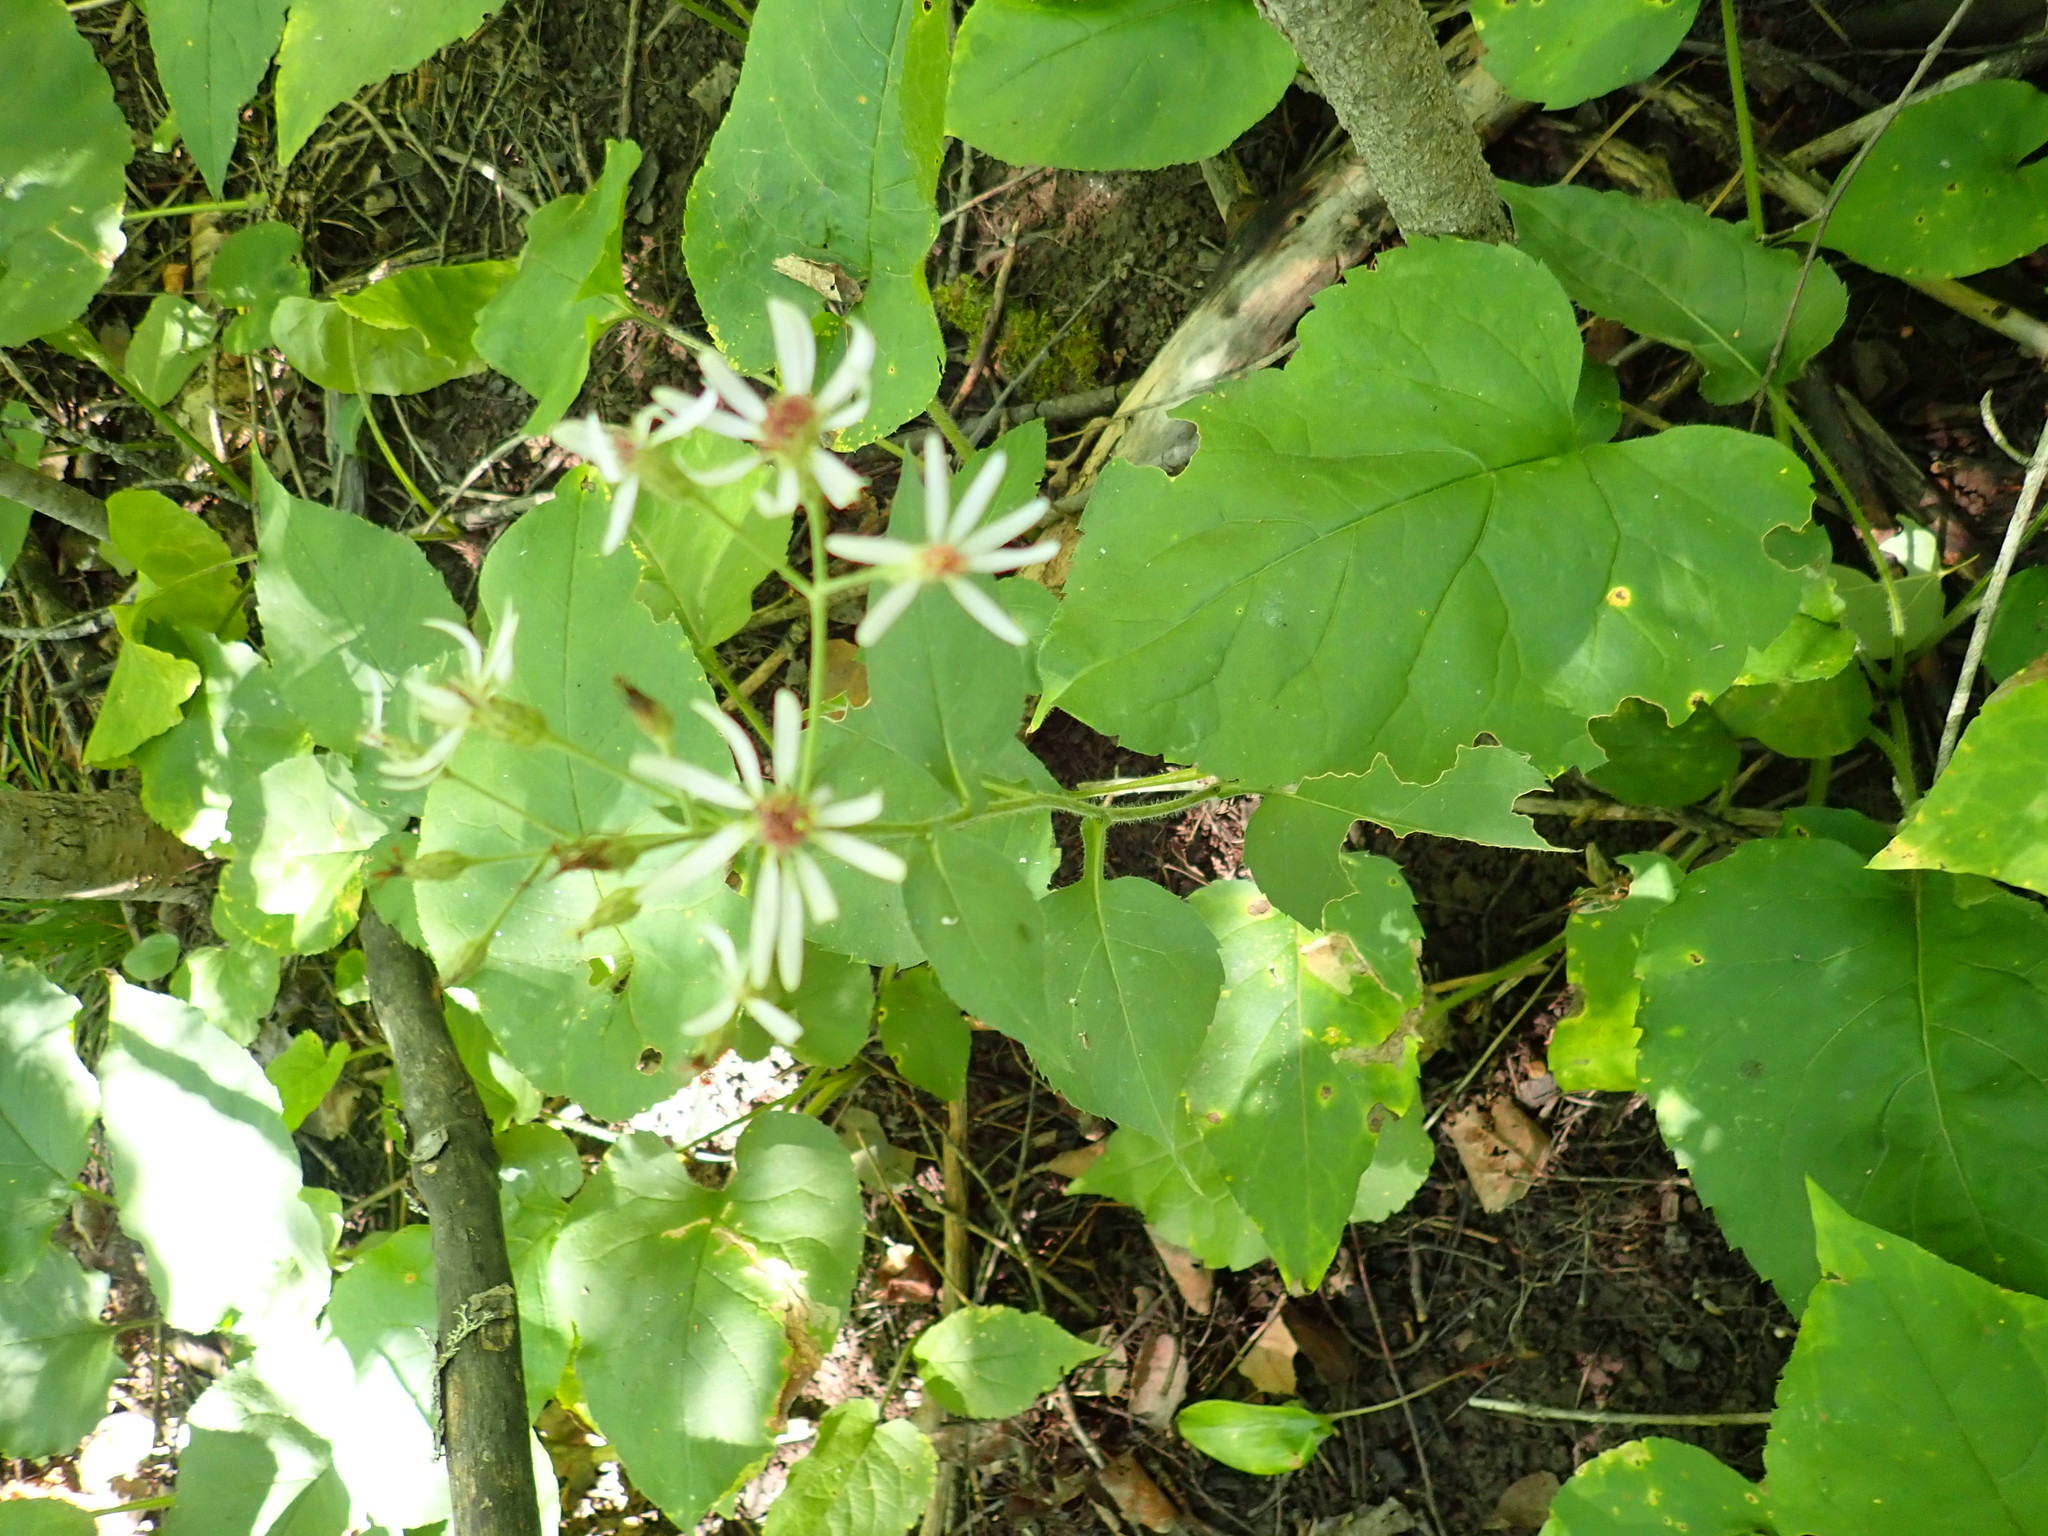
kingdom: Plantae
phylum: Tracheophyta
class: Magnoliopsida
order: Asterales
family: Asteraceae
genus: Eurybia
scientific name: Eurybia macrophylla
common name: Big-leaved aster
